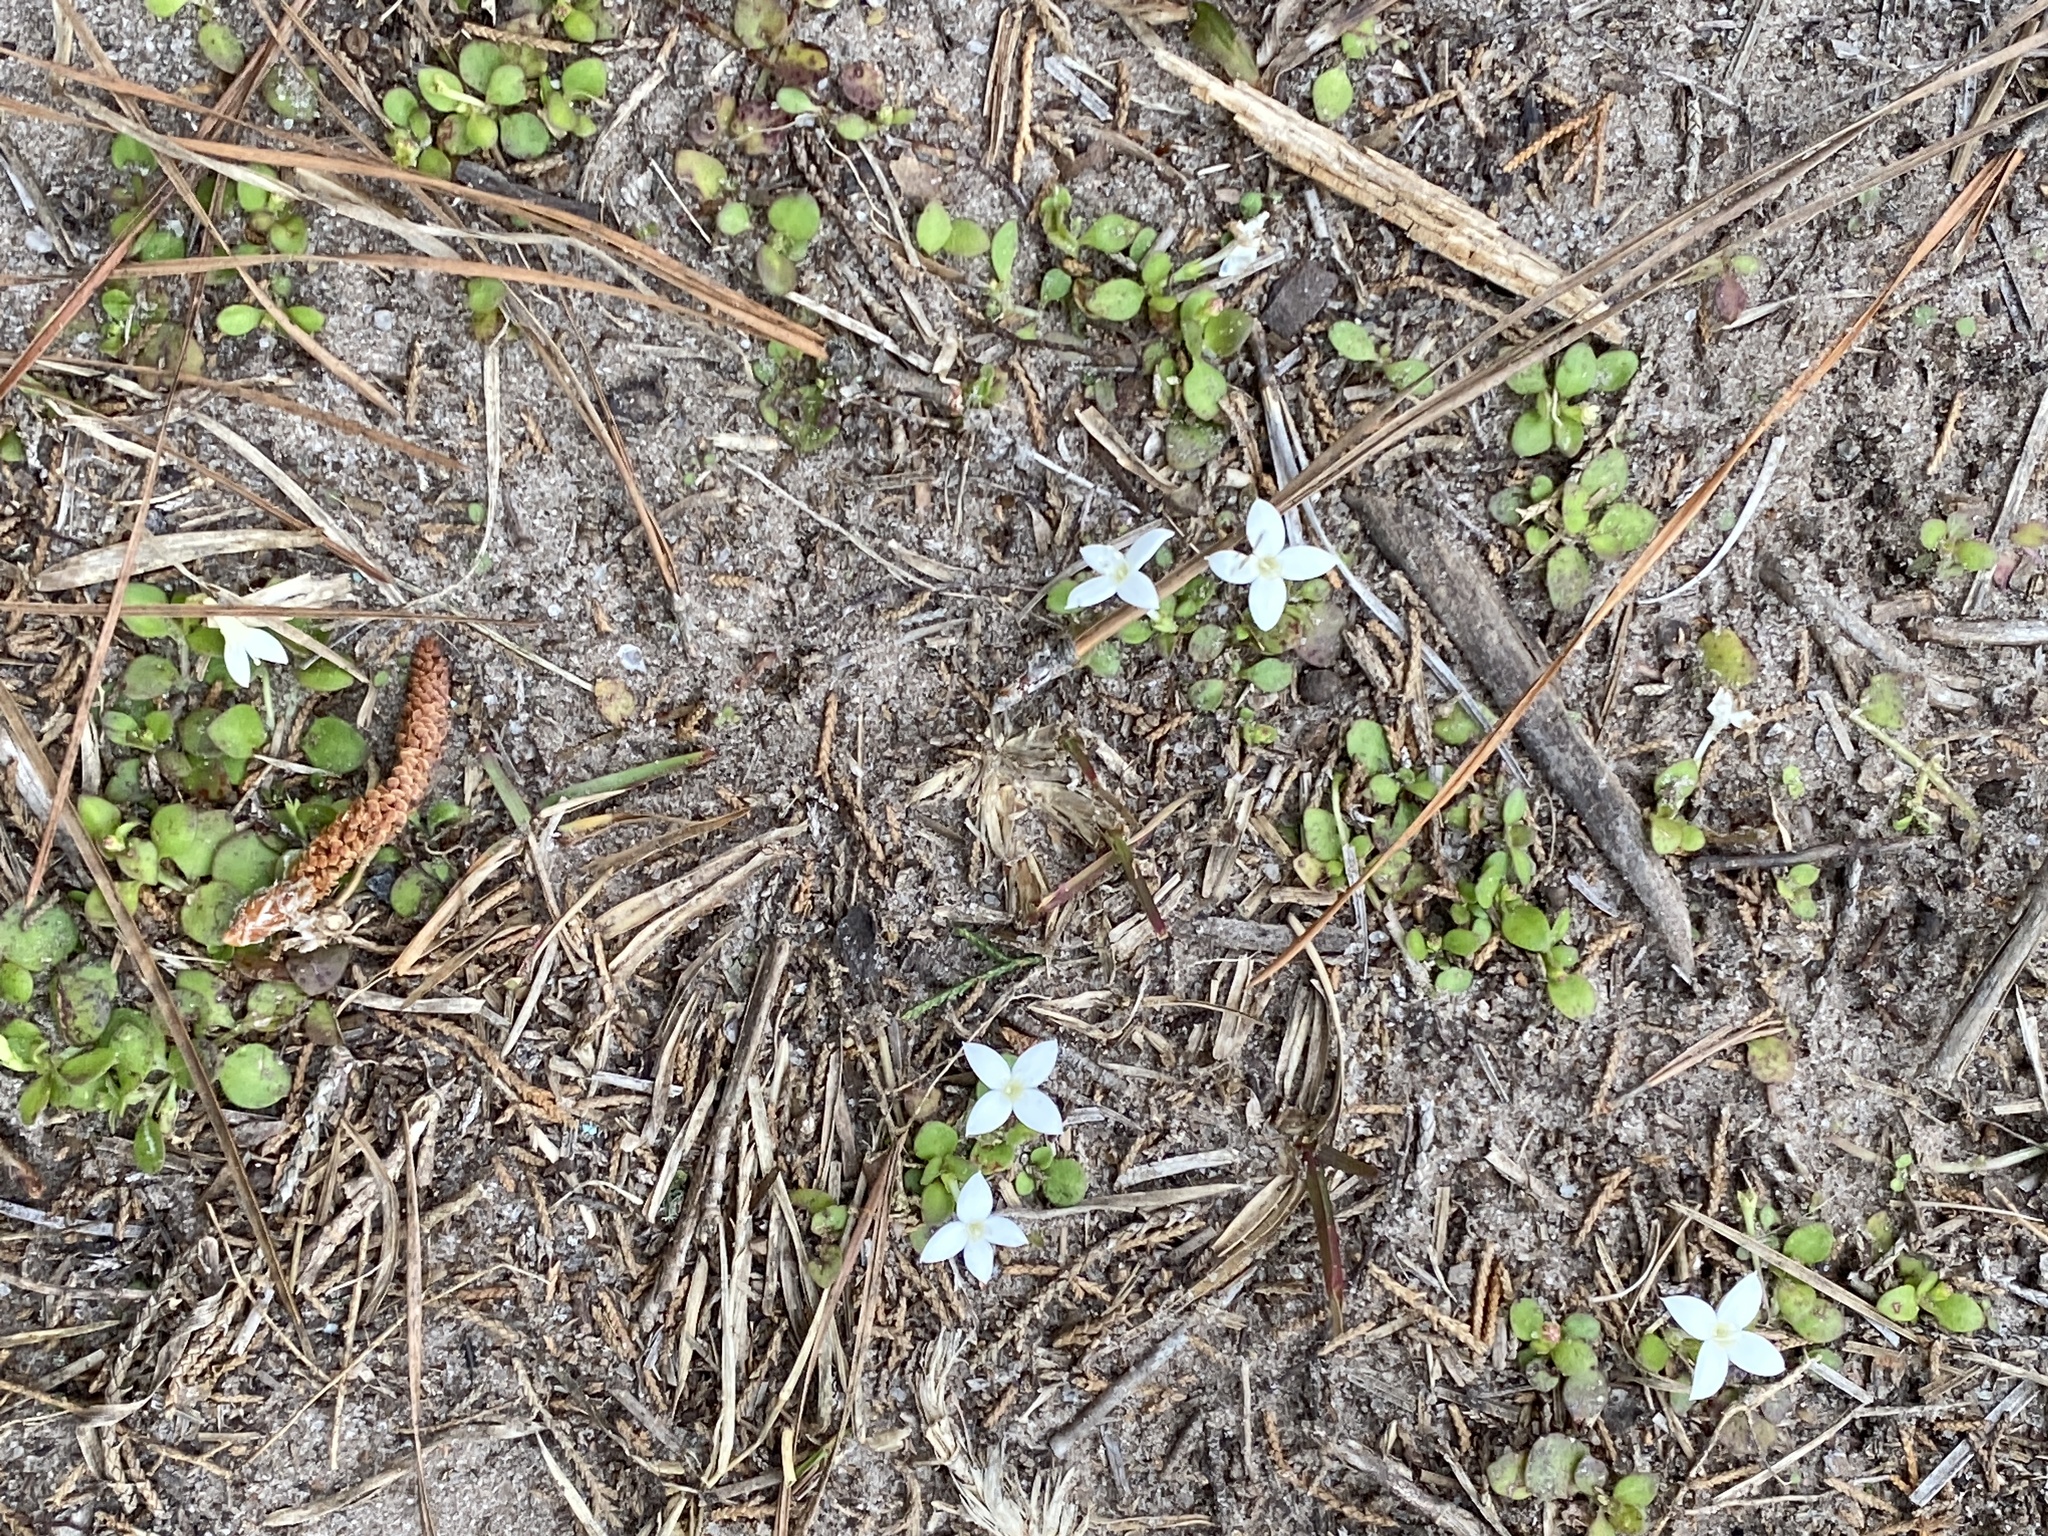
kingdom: Plantae
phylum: Tracheophyta
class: Magnoliopsida
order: Gentianales
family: Rubiaceae
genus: Houstonia
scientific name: Houstonia procumbens
